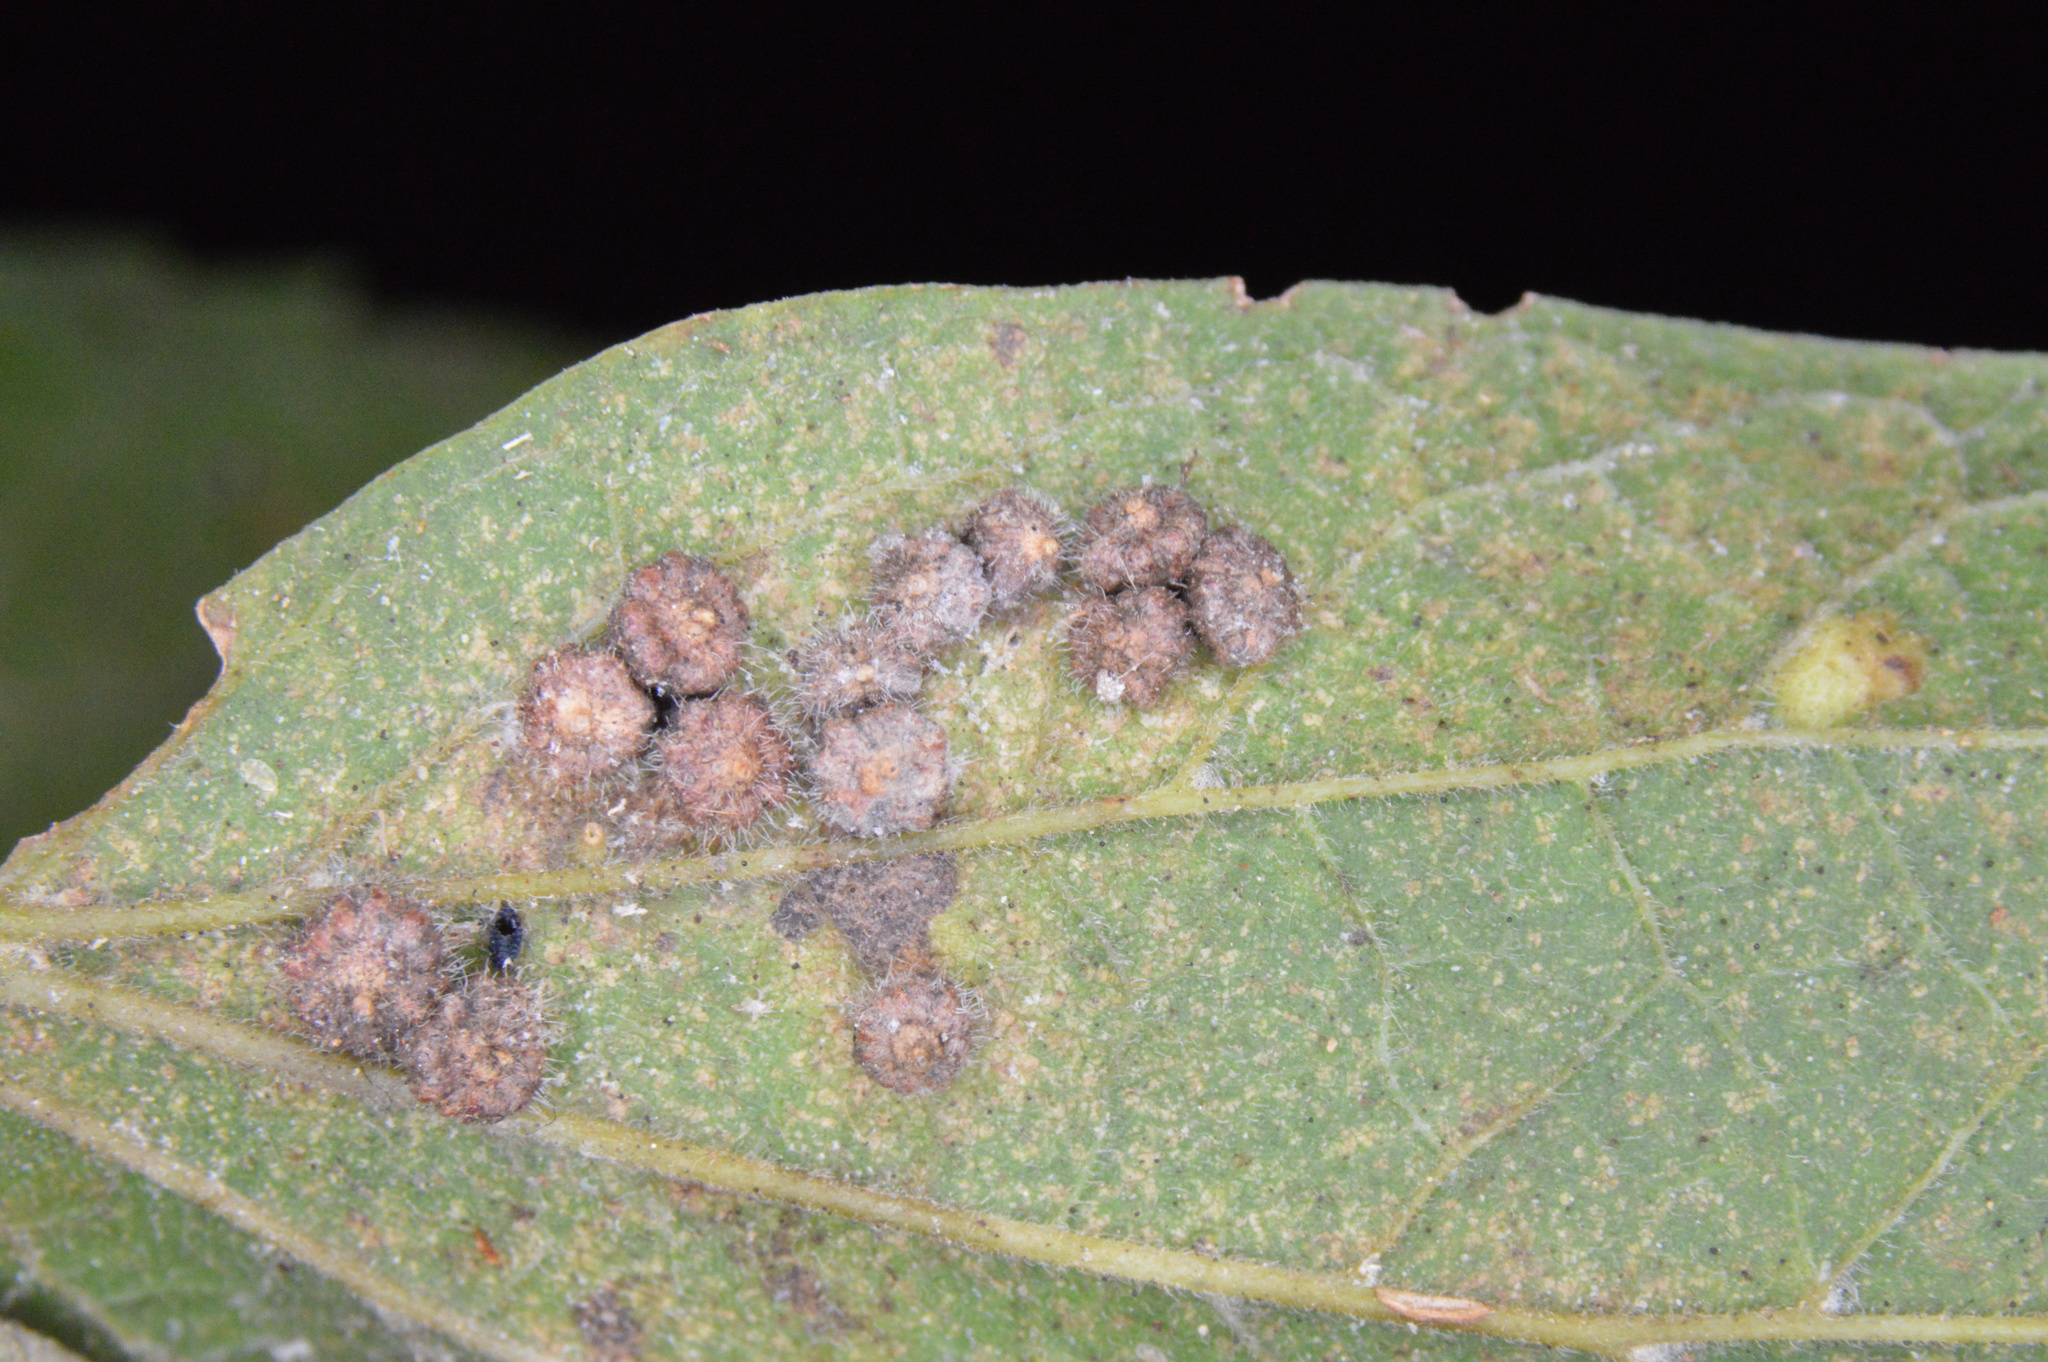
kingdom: Animalia
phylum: Arthropoda
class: Insecta
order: Diptera
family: Cecidomyiidae
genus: Celticecis
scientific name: Celticecis capsularis
